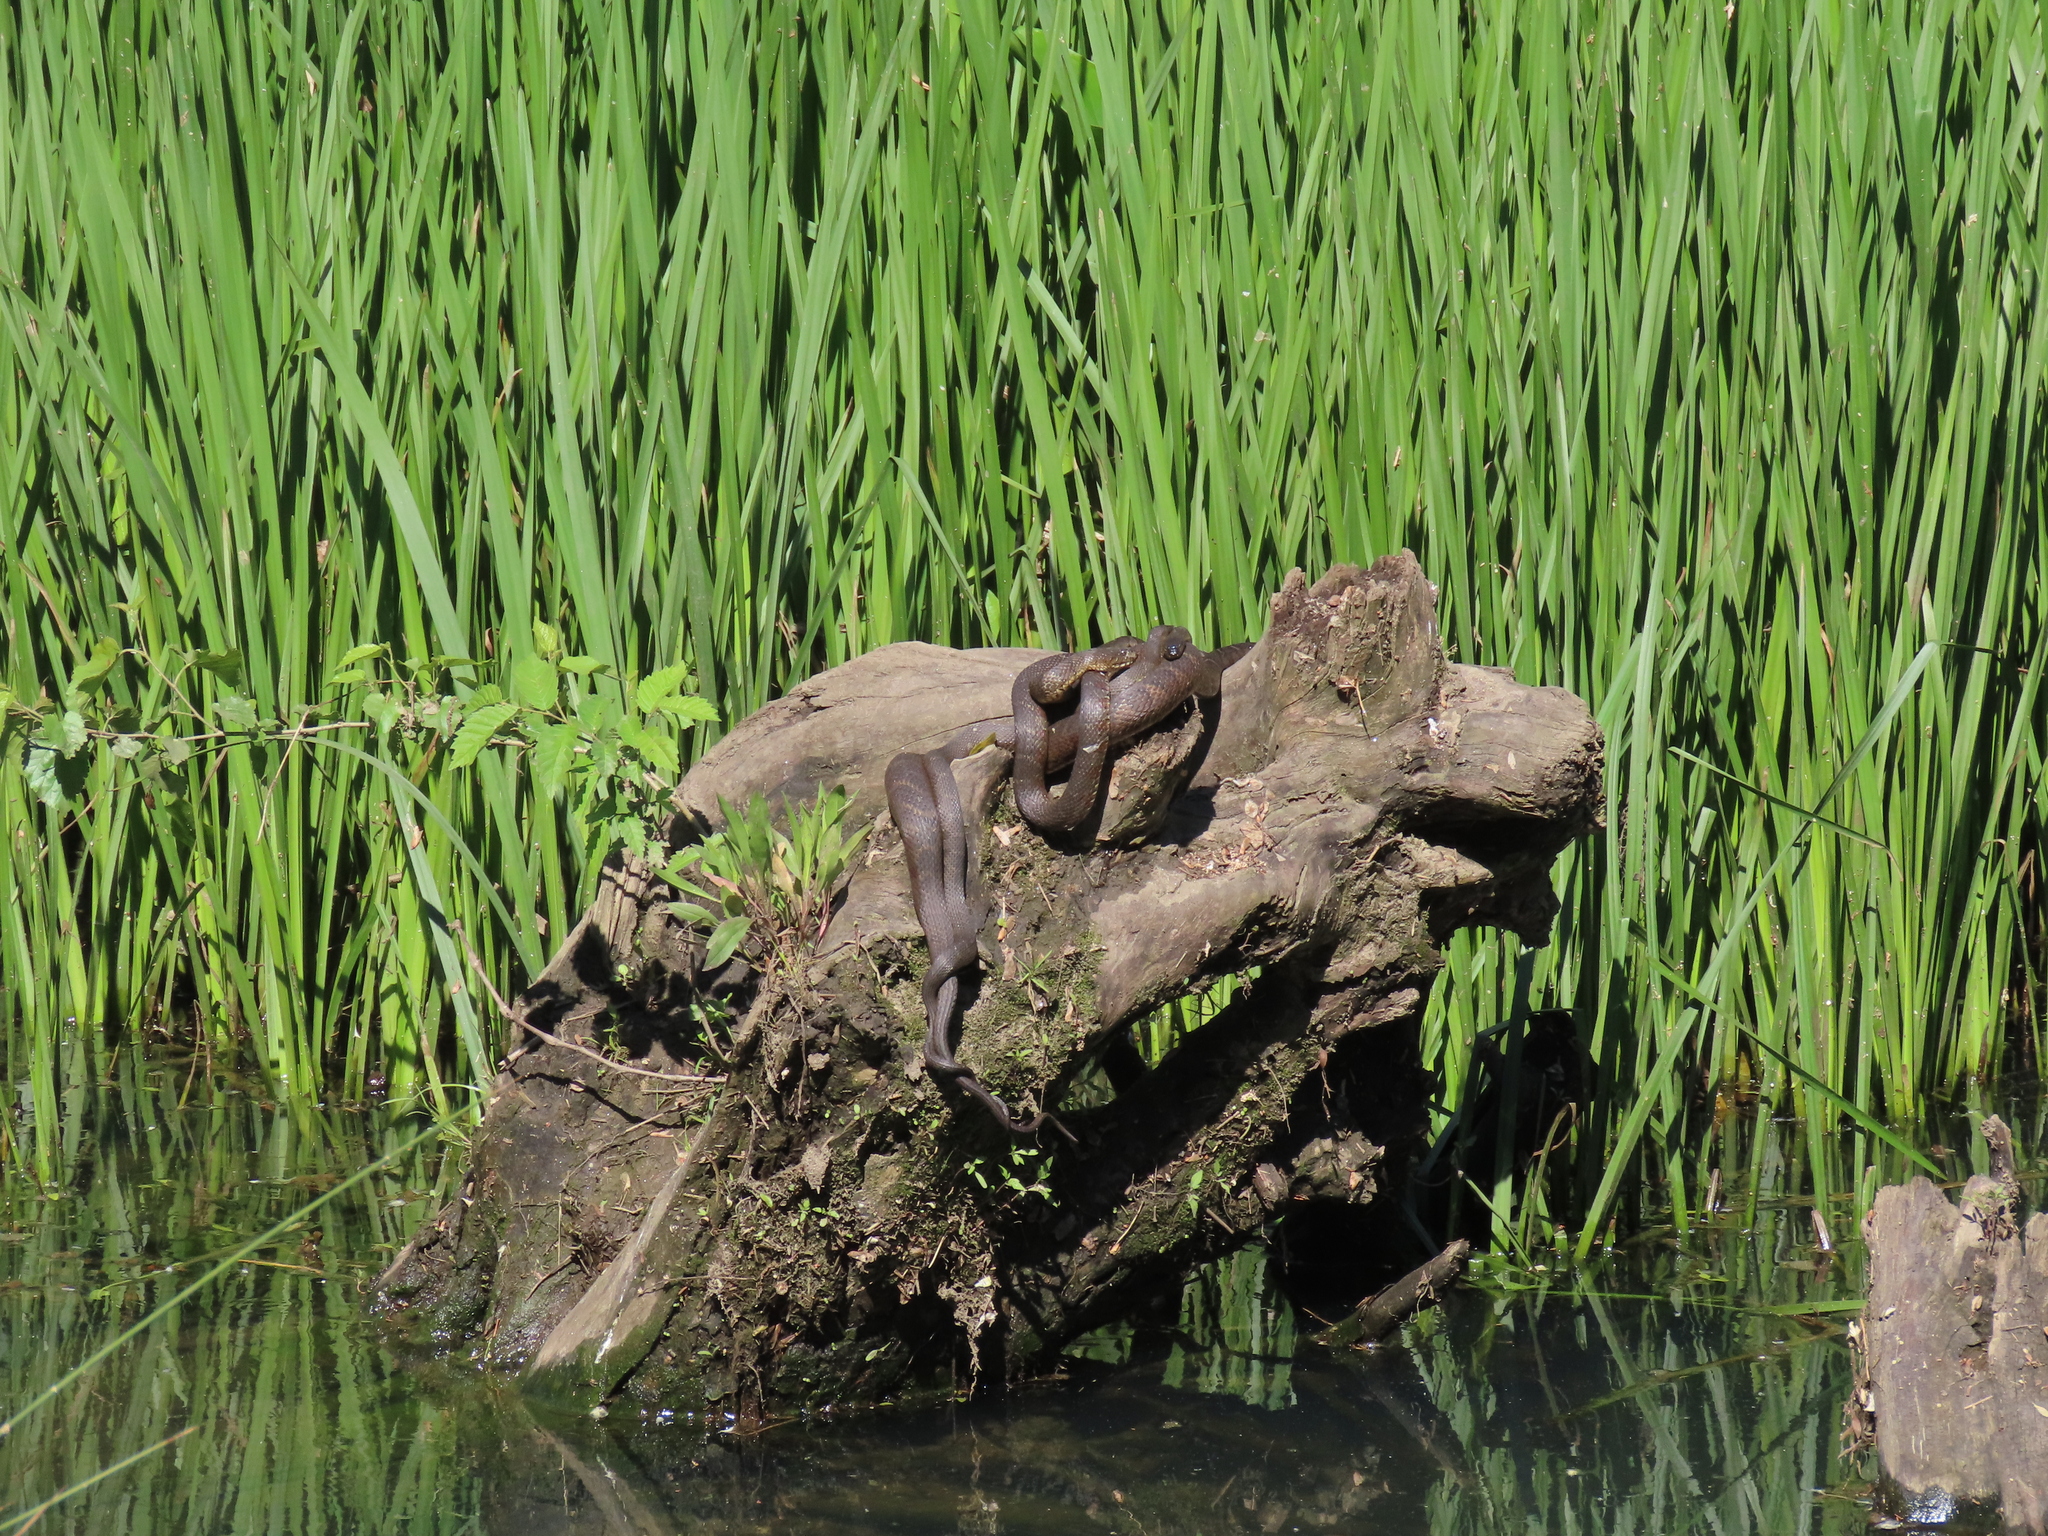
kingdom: Animalia
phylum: Chordata
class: Squamata
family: Colubridae
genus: Nerodia
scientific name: Nerodia sipedon
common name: Northern water snake
